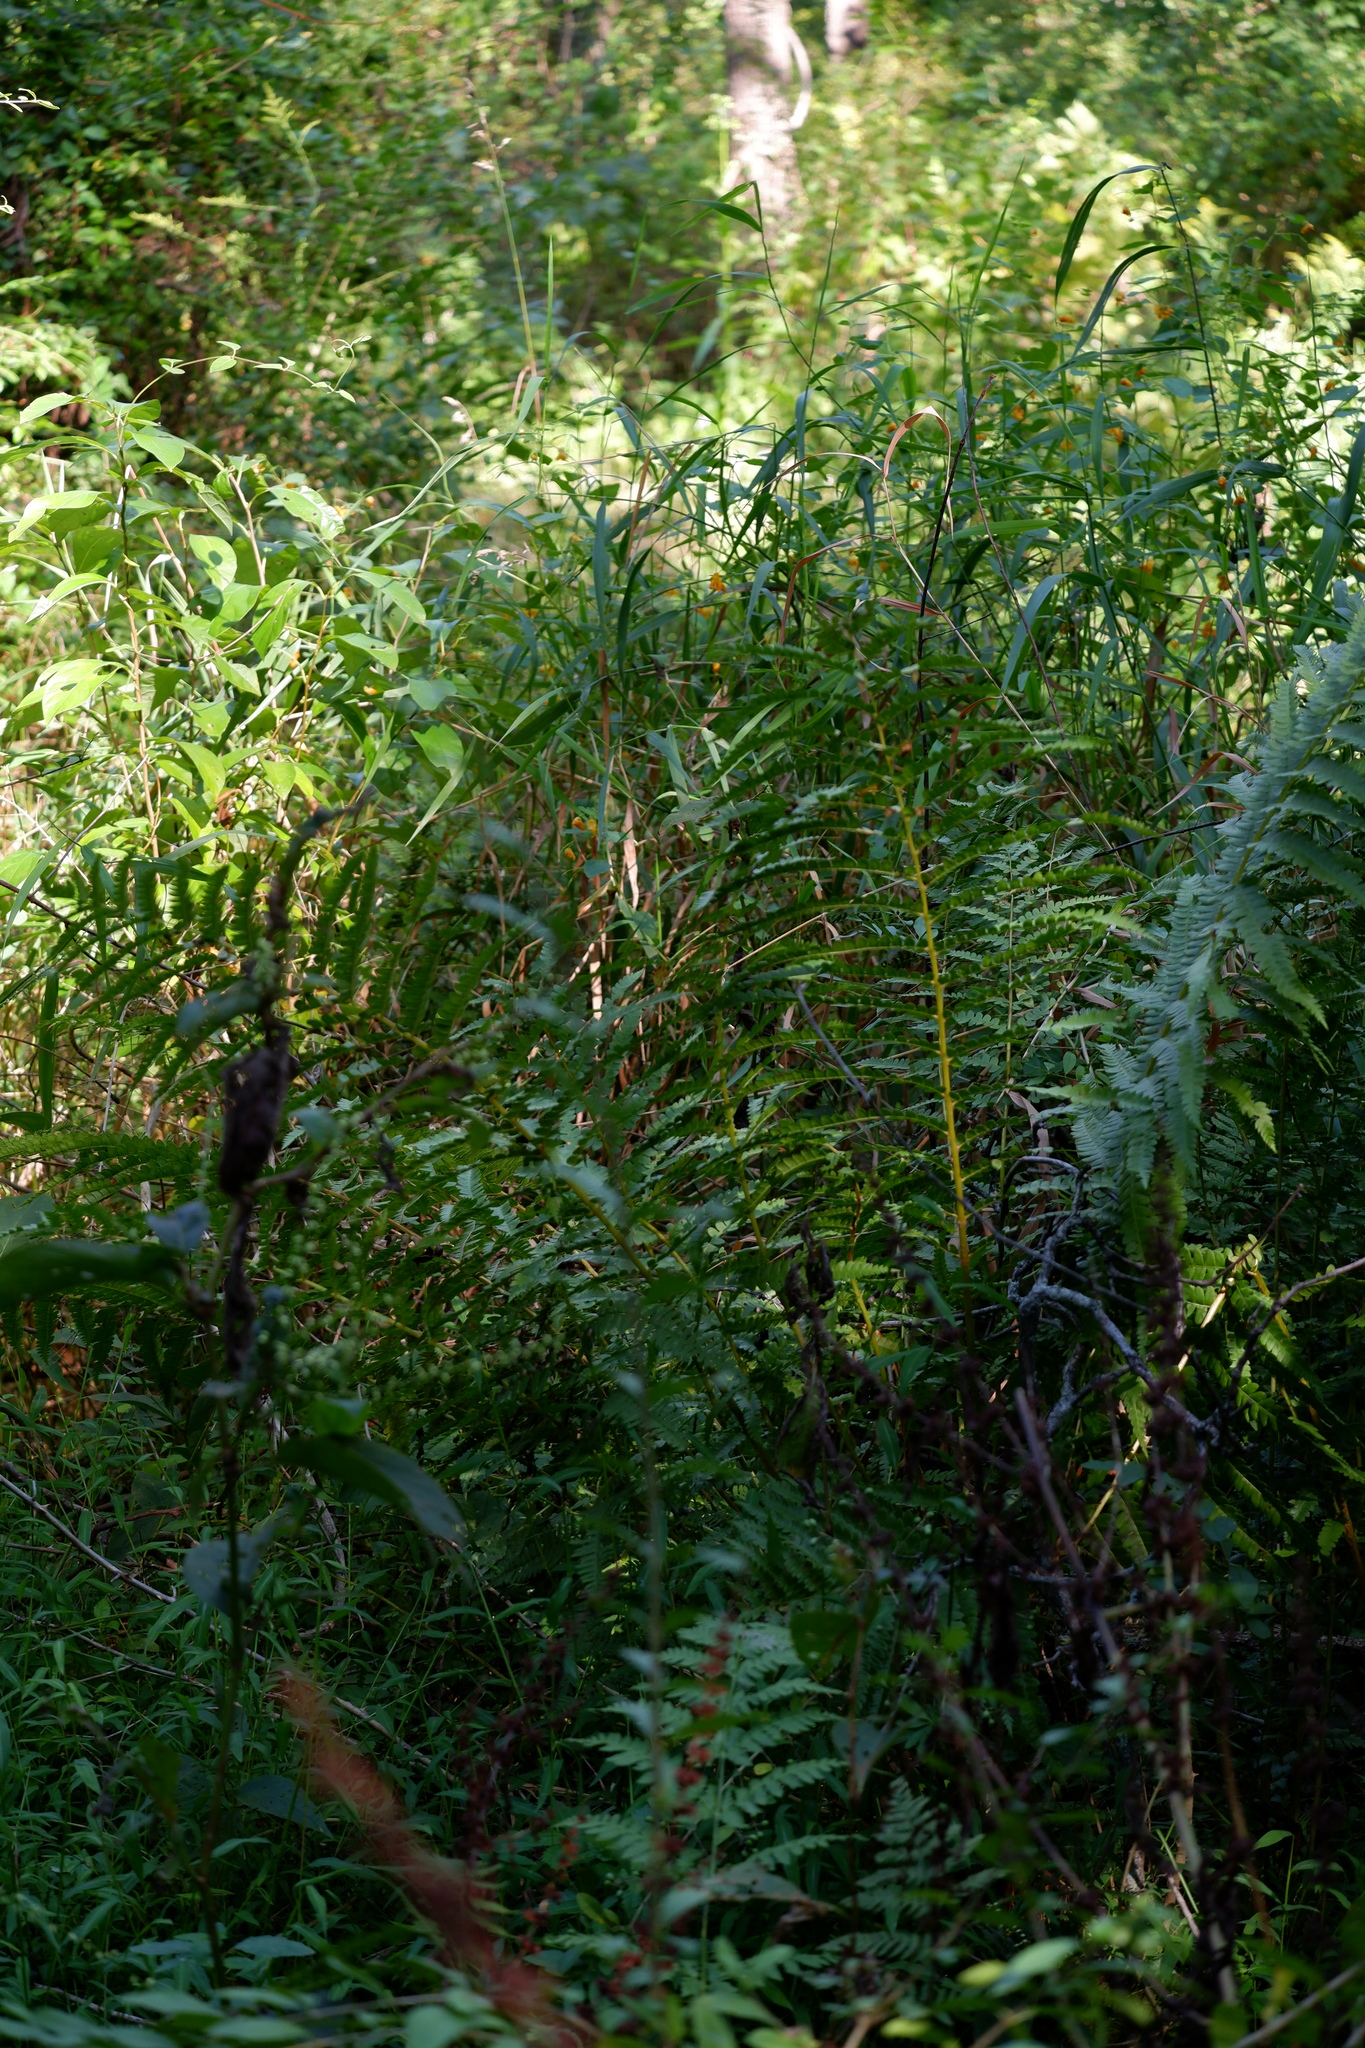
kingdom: Plantae
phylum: Tracheophyta
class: Polypodiopsida
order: Osmundales
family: Osmundaceae
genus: Osmundastrum
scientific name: Osmundastrum cinnamomeum
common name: Cinnamon fern
